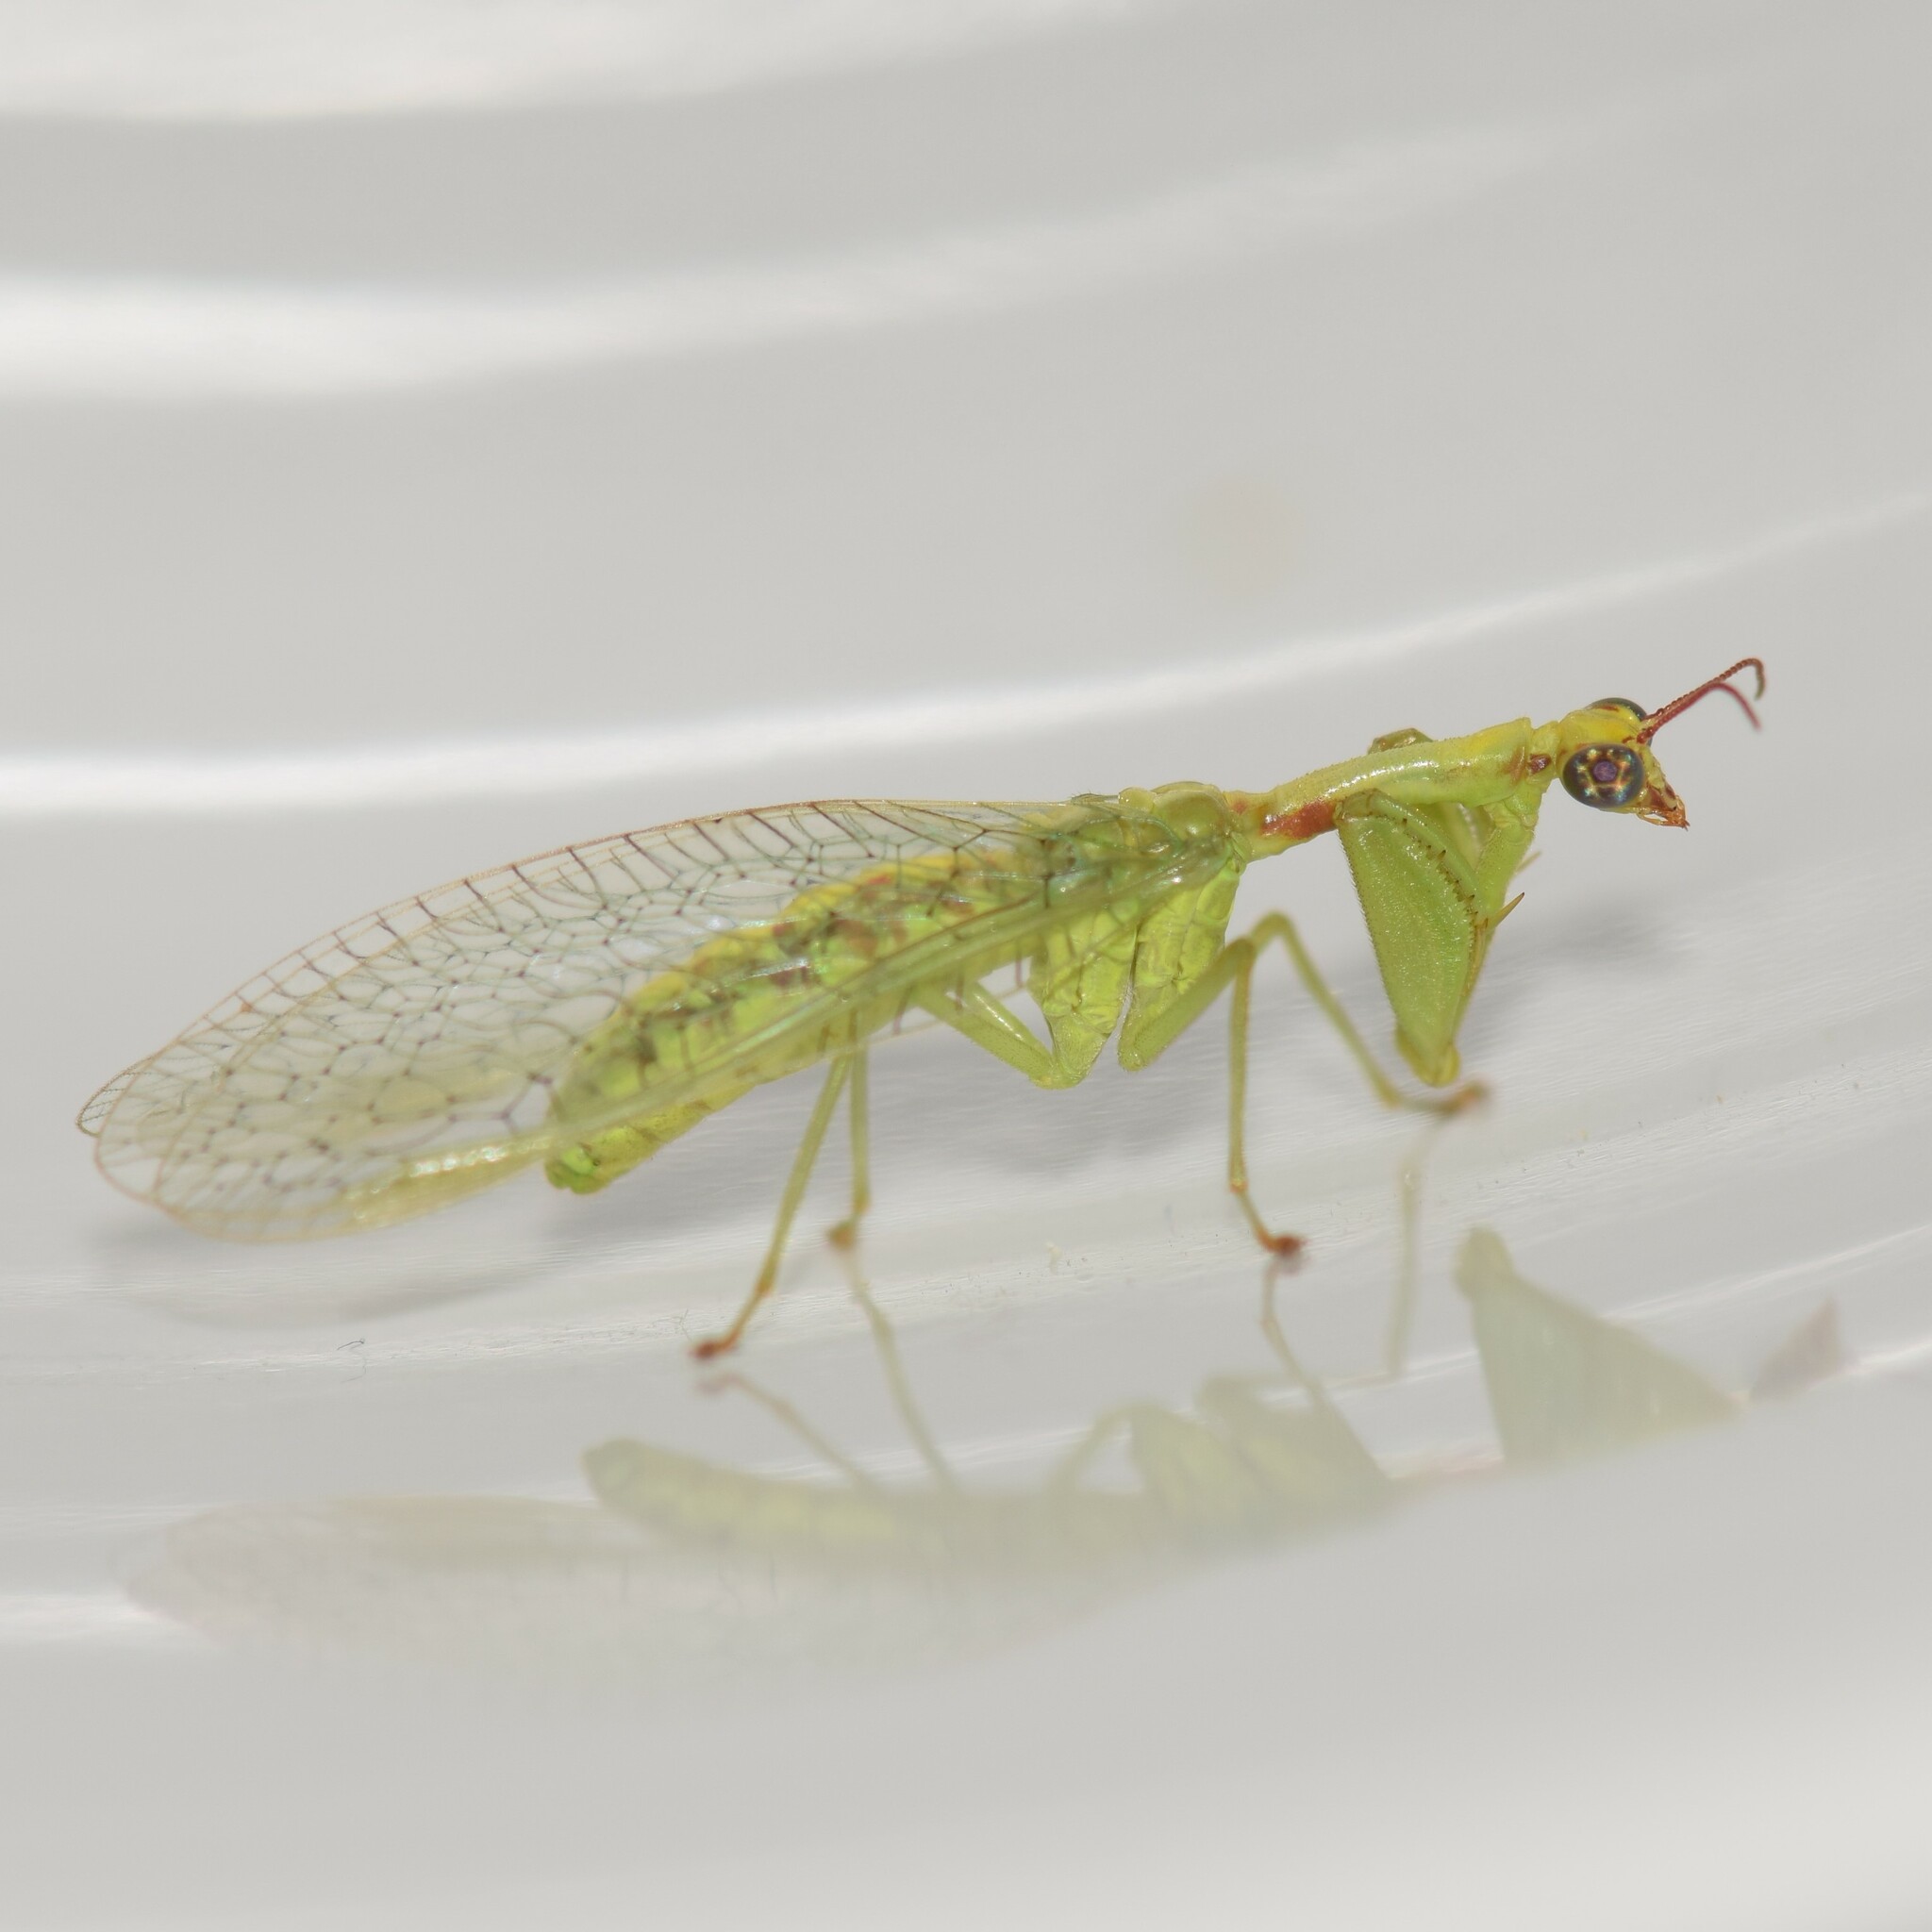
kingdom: Animalia
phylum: Arthropoda
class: Insecta
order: Neuroptera
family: Mantispidae
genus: Zeugomantispa
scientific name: Zeugomantispa minuta
